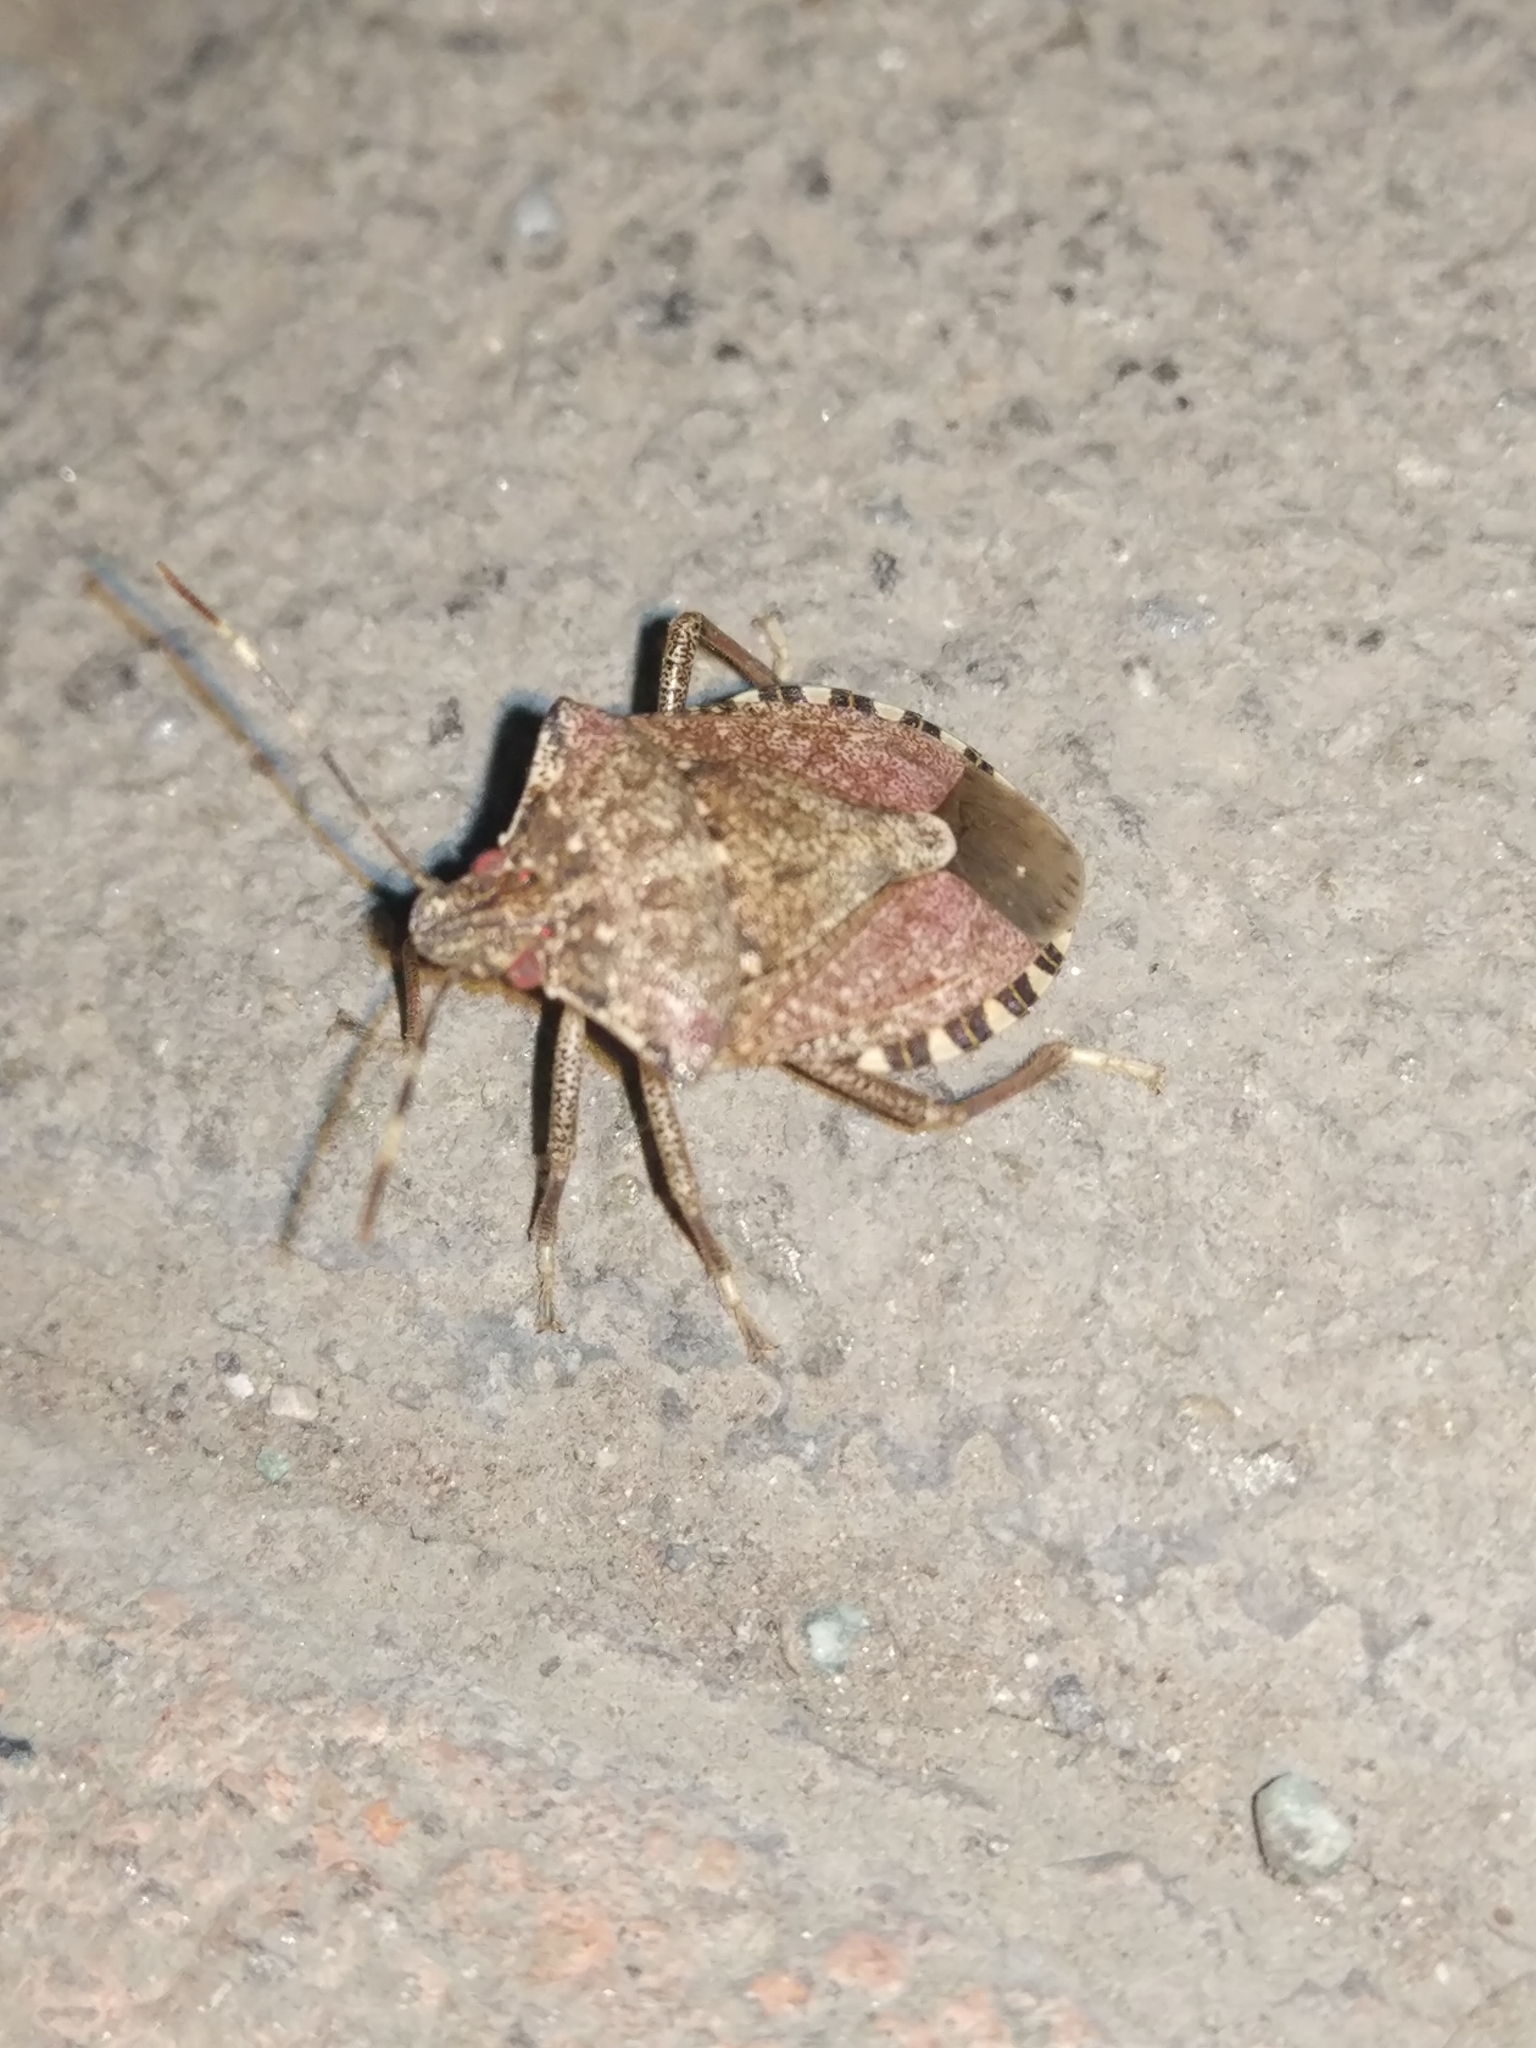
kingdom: Animalia
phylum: Arthropoda
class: Insecta
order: Hemiptera
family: Pentatomidae
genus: Halyomorpha
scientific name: Halyomorpha halys
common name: Brown marmorated stink bug
